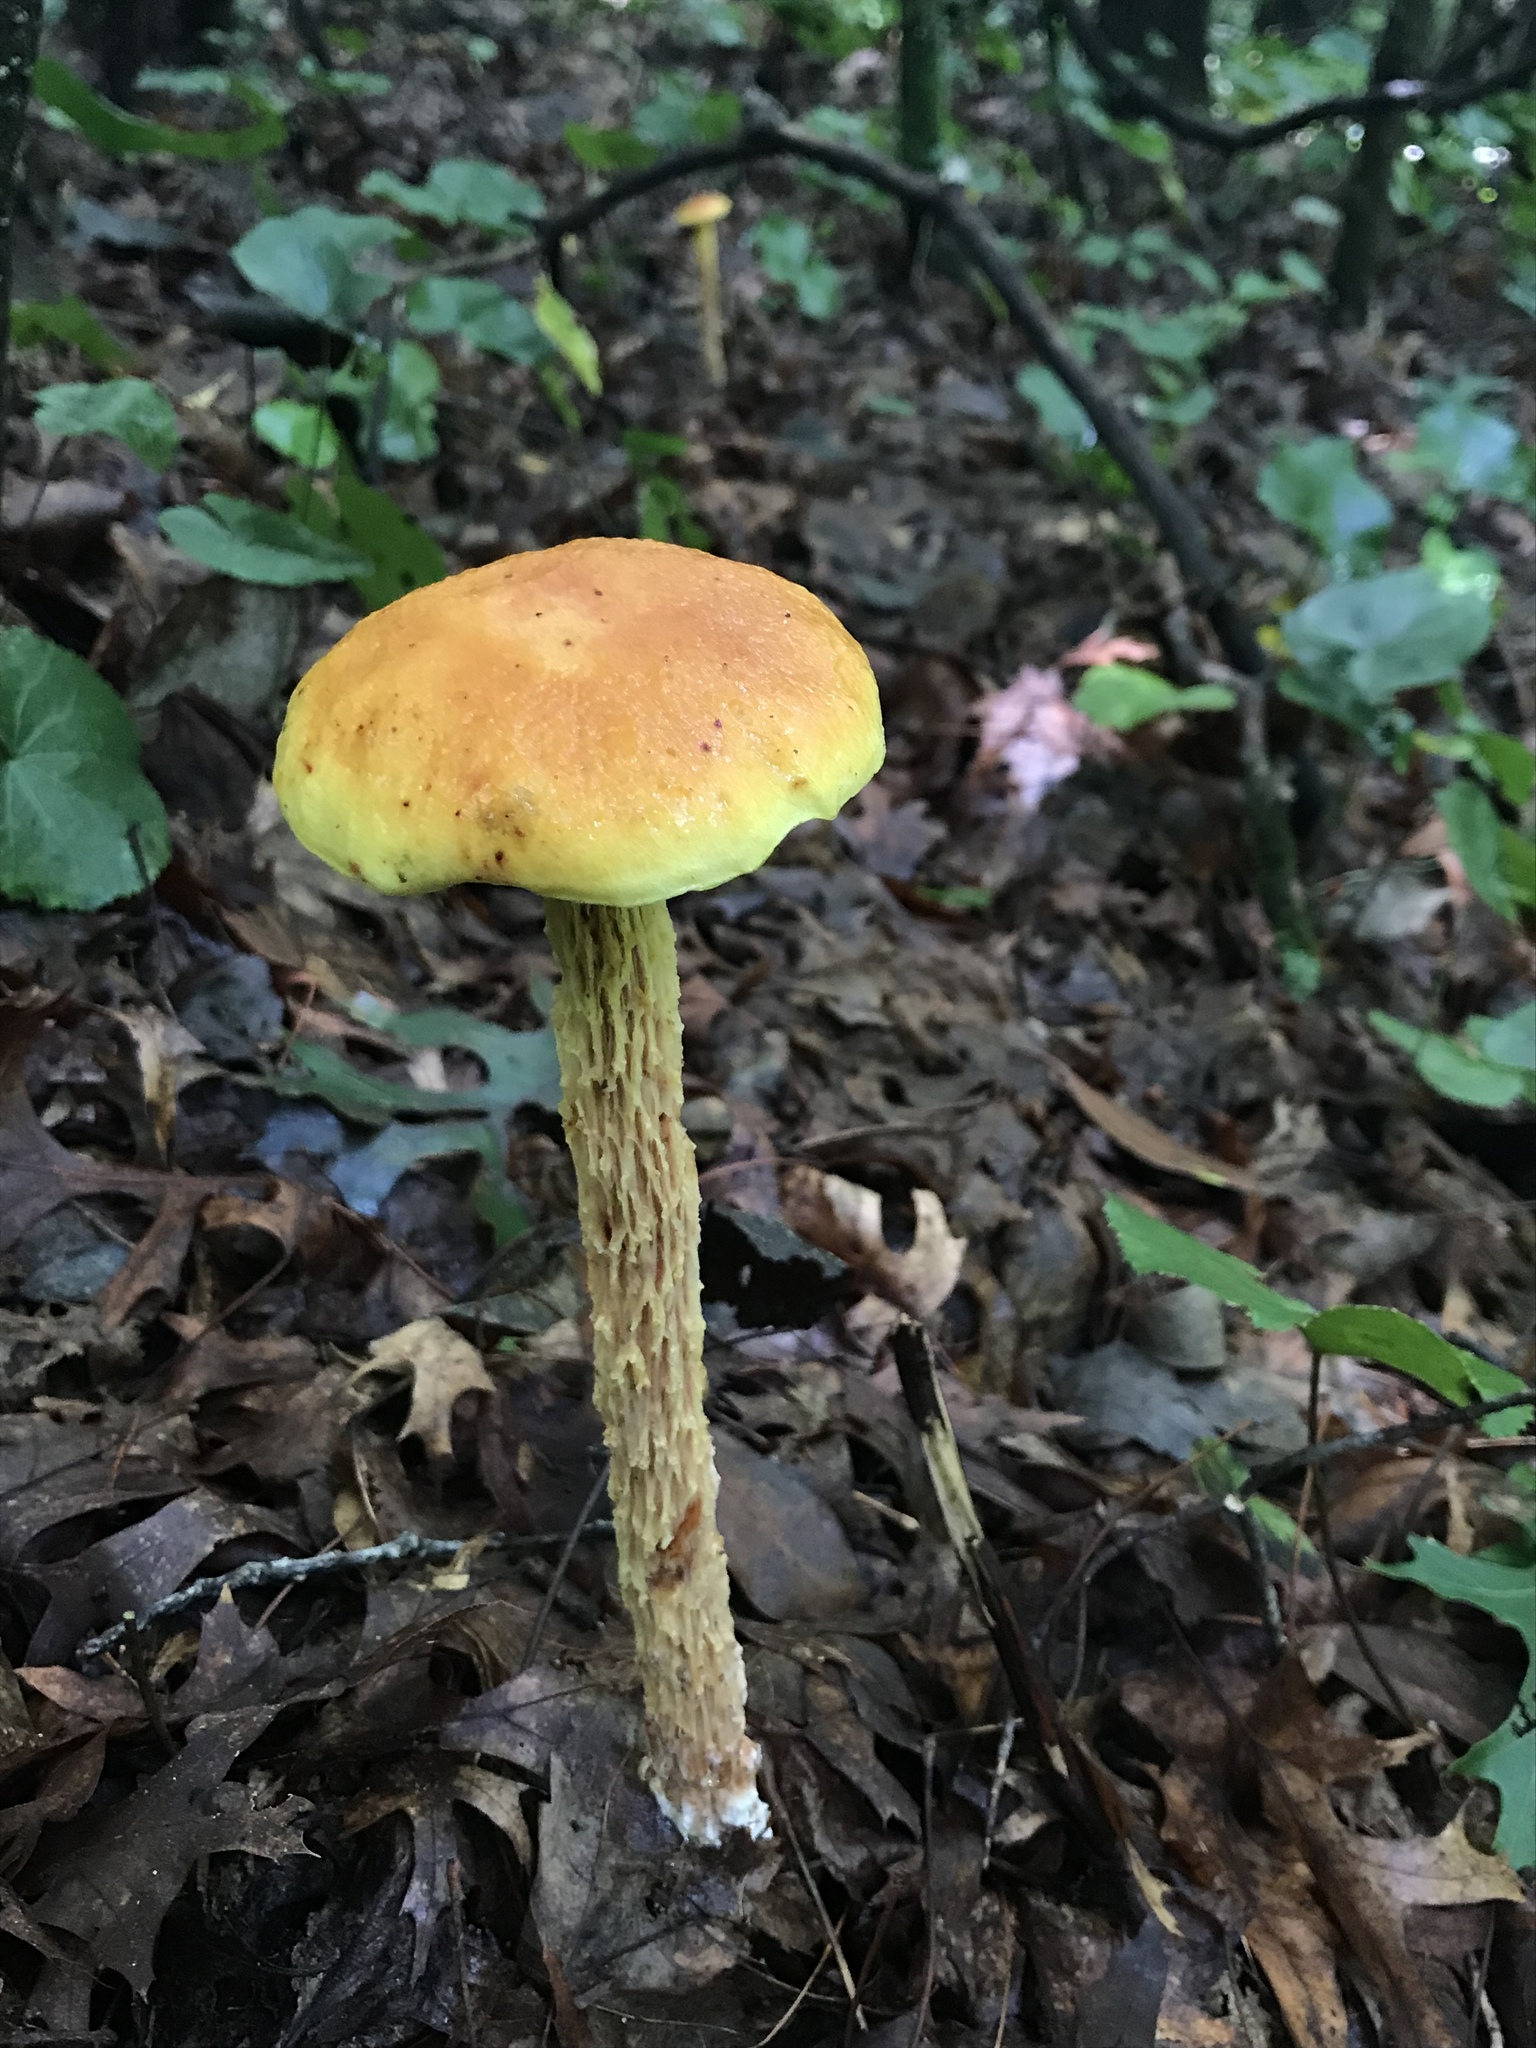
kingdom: Fungi
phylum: Basidiomycota
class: Agaricomycetes
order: Boletales
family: Boletaceae
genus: Aureoboletus
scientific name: Aureoboletus betula
